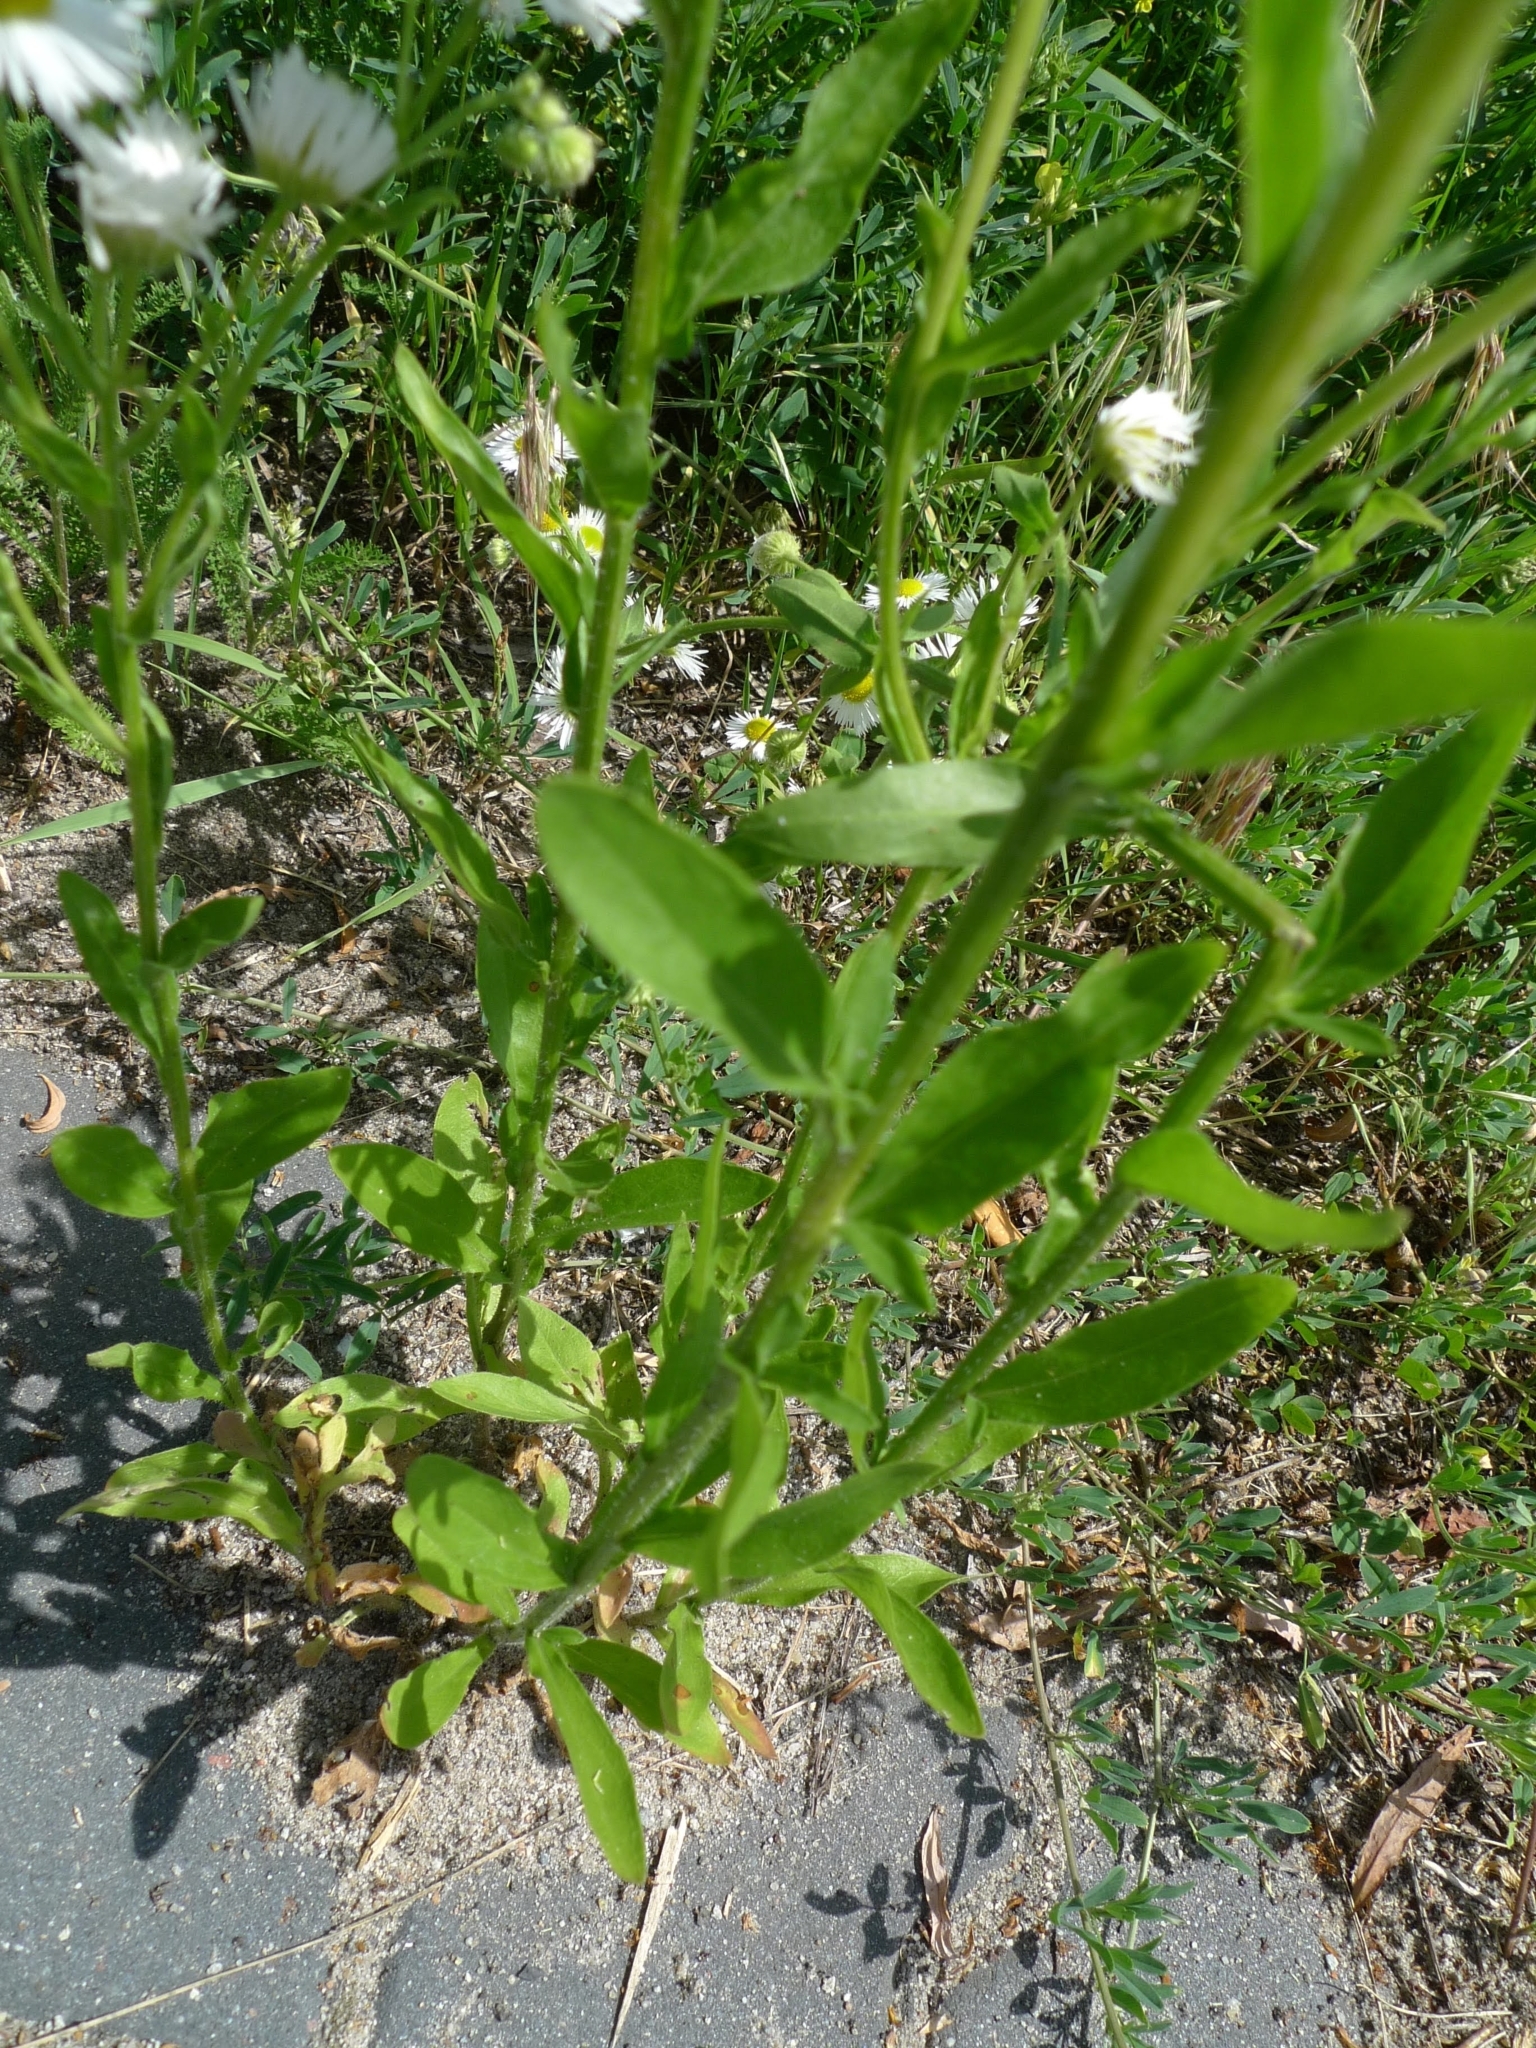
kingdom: Plantae
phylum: Tracheophyta
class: Magnoliopsida
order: Asterales
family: Asteraceae
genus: Erigeron
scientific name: Erigeron annuus
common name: Tall fleabane
